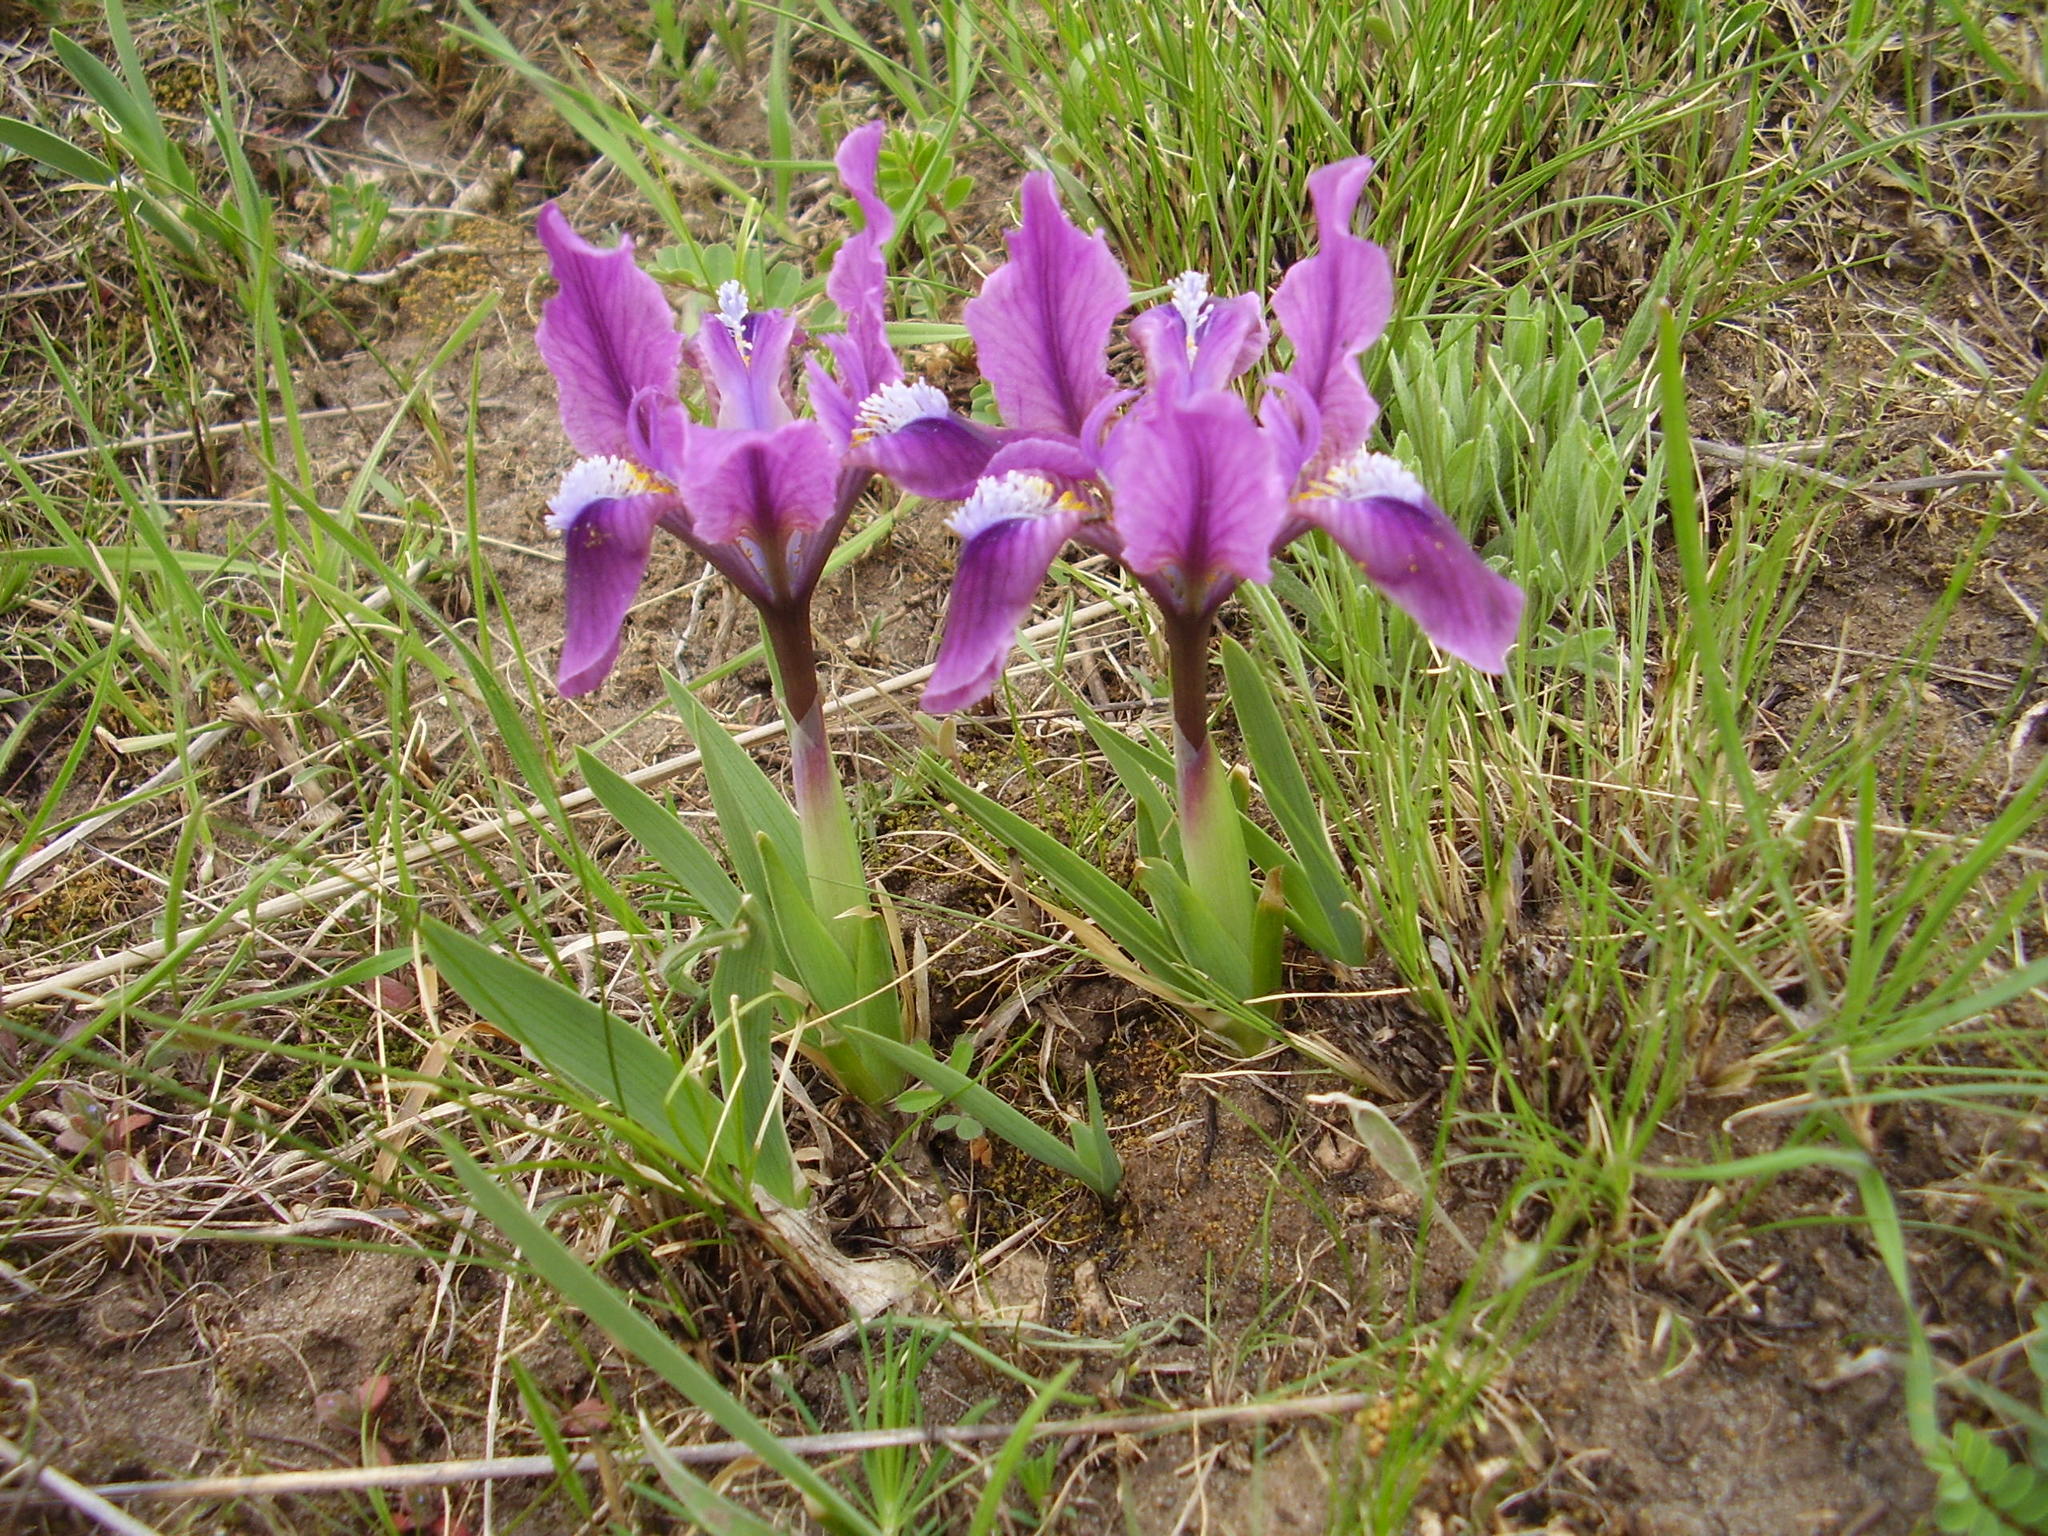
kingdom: Plantae
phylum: Tracheophyta
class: Liliopsida
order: Asparagales
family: Iridaceae
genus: Iris
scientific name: Iris pumila
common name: Dwarf iris
